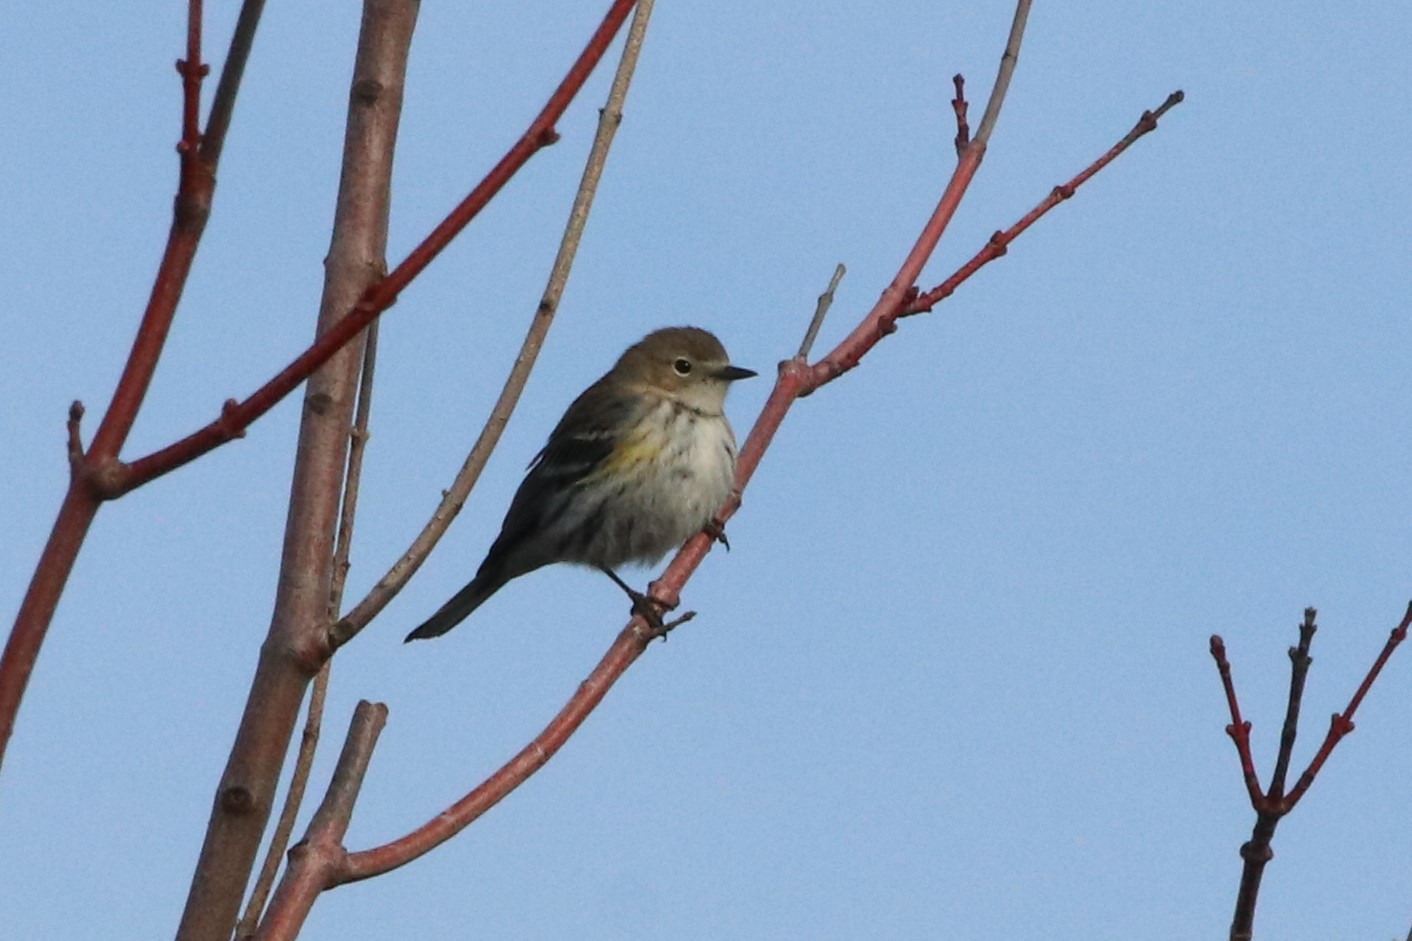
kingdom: Animalia
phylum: Chordata
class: Aves
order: Passeriformes
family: Parulidae
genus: Setophaga
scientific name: Setophaga coronata
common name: Myrtle warbler
